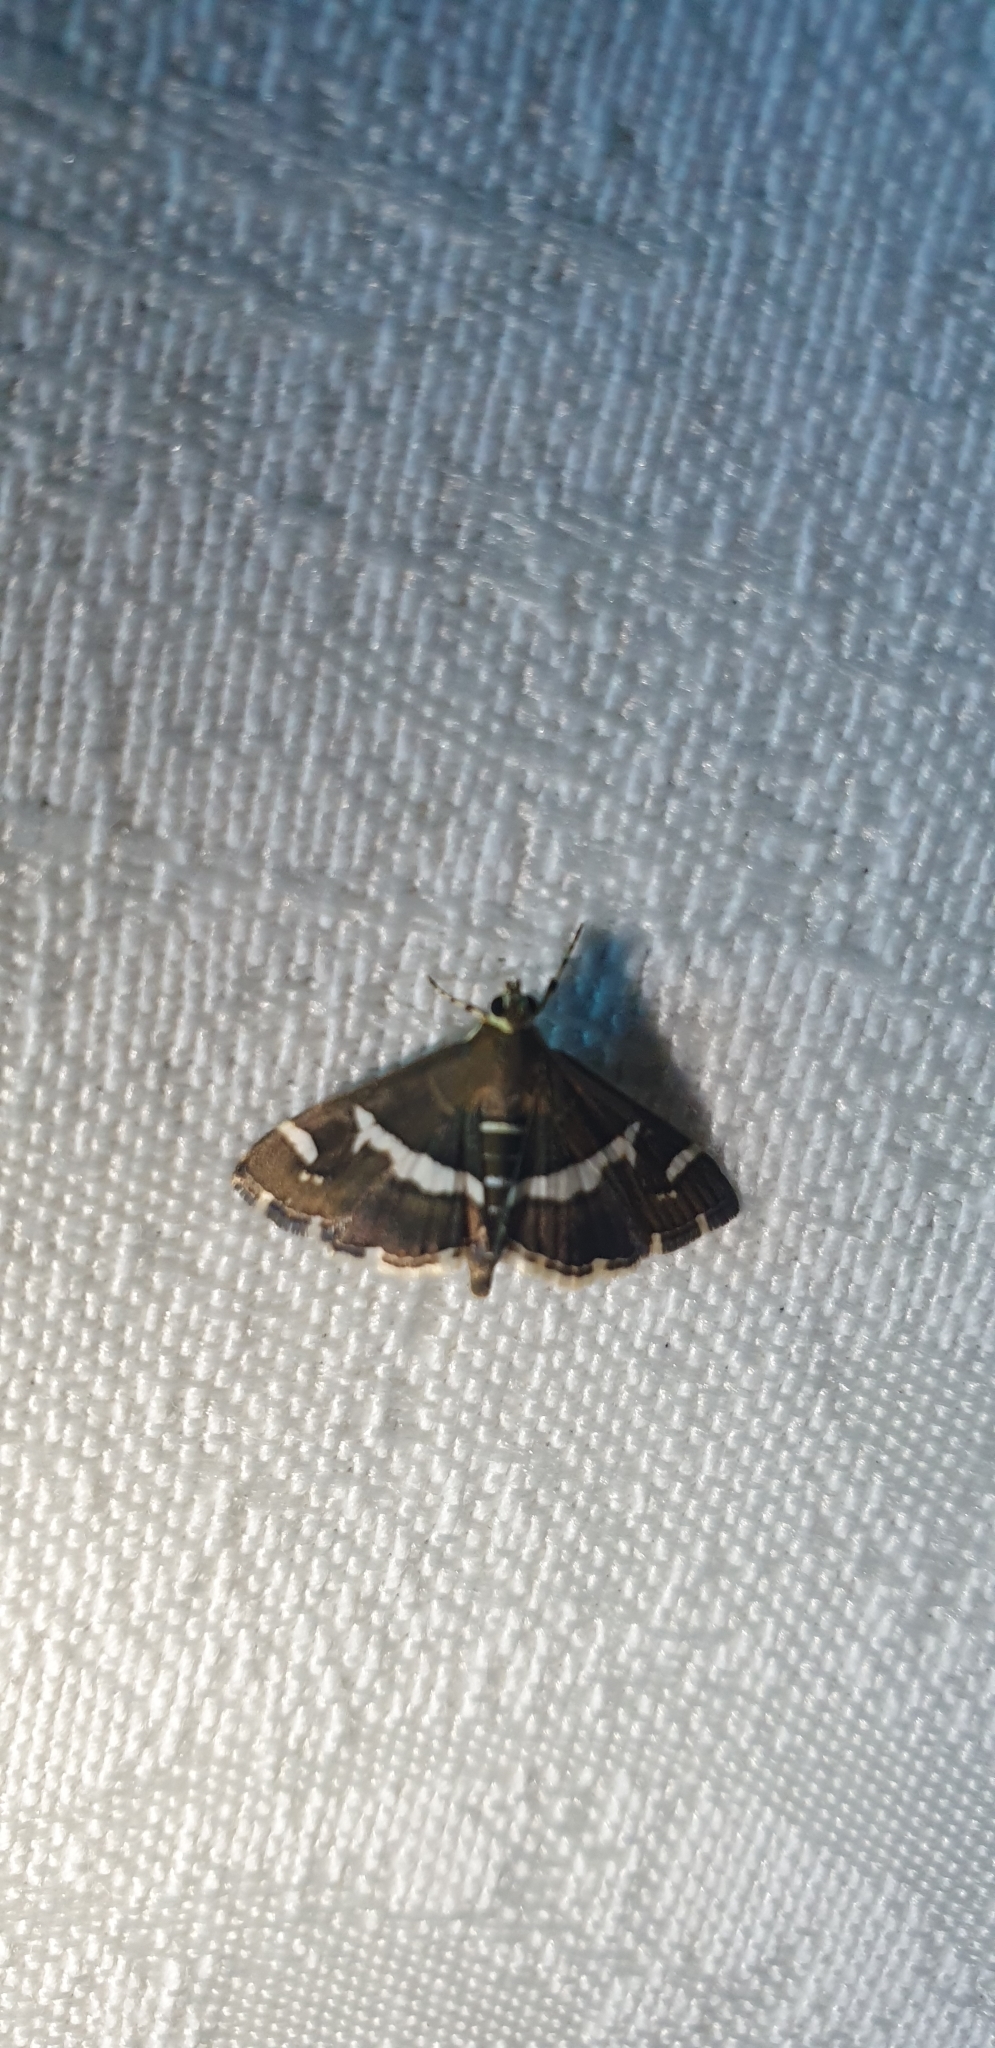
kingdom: Animalia
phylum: Arthropoda
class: Insecta
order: Lepidoptera
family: Crambidae
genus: Spoladea
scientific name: Spoladea recurvalis
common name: Beet webworm moth
